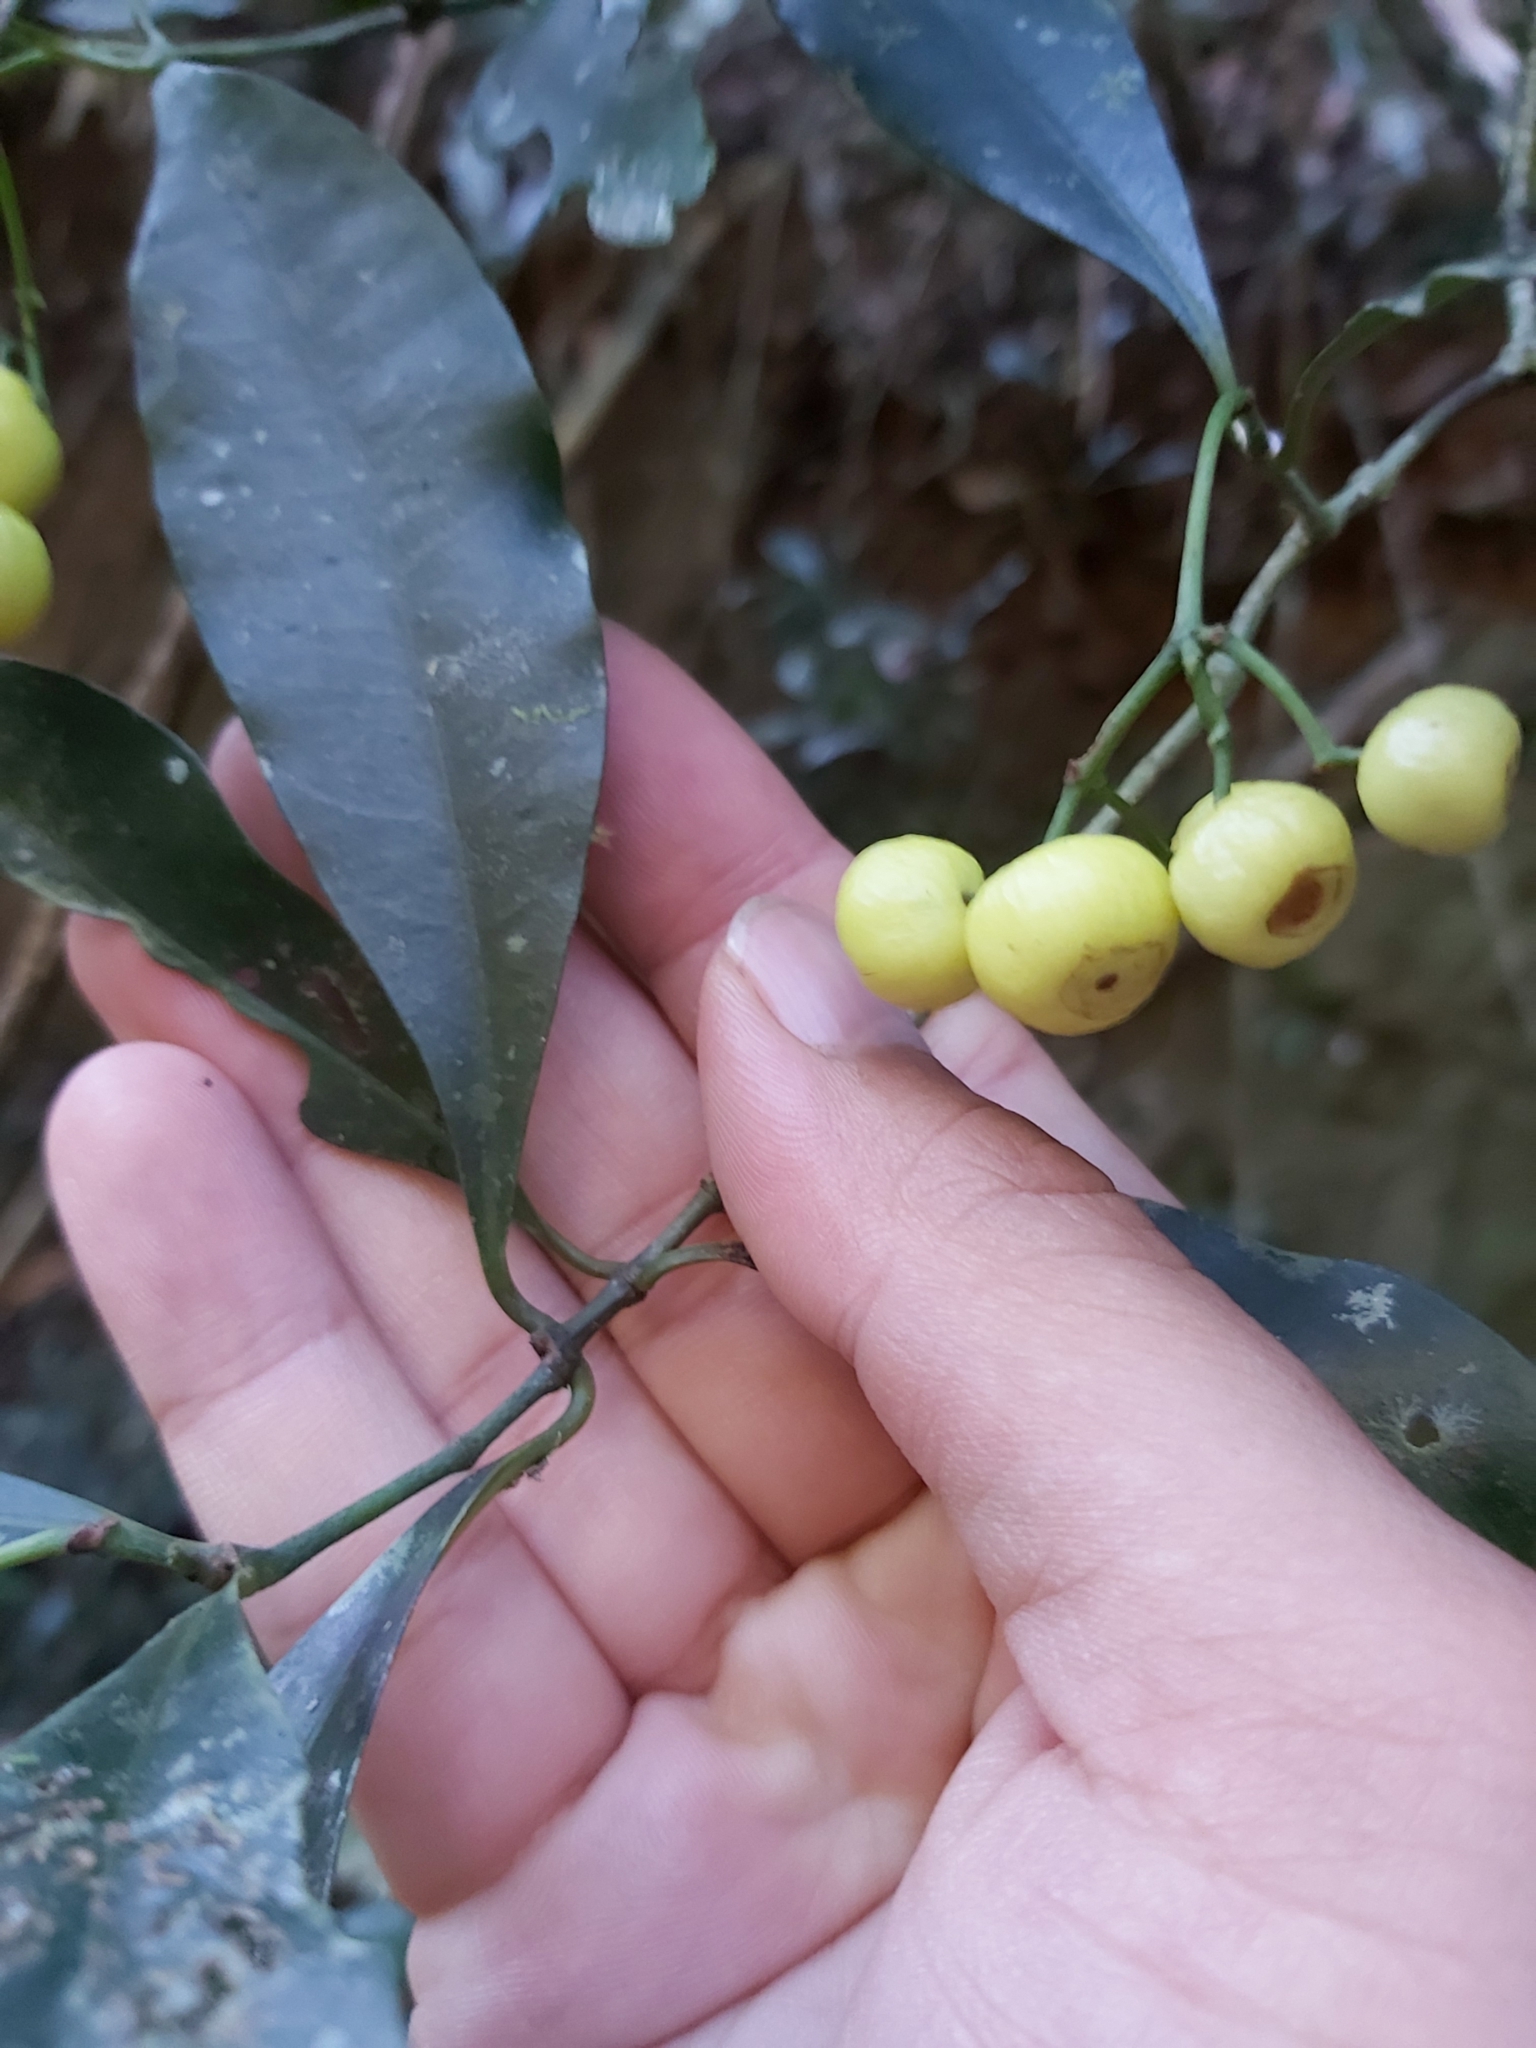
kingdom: Plantae
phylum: Tracheophyta
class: Magnoliopsida
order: Gentianales
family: Rubiaceae
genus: Psychotria
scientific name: Psychotria dallachiana
